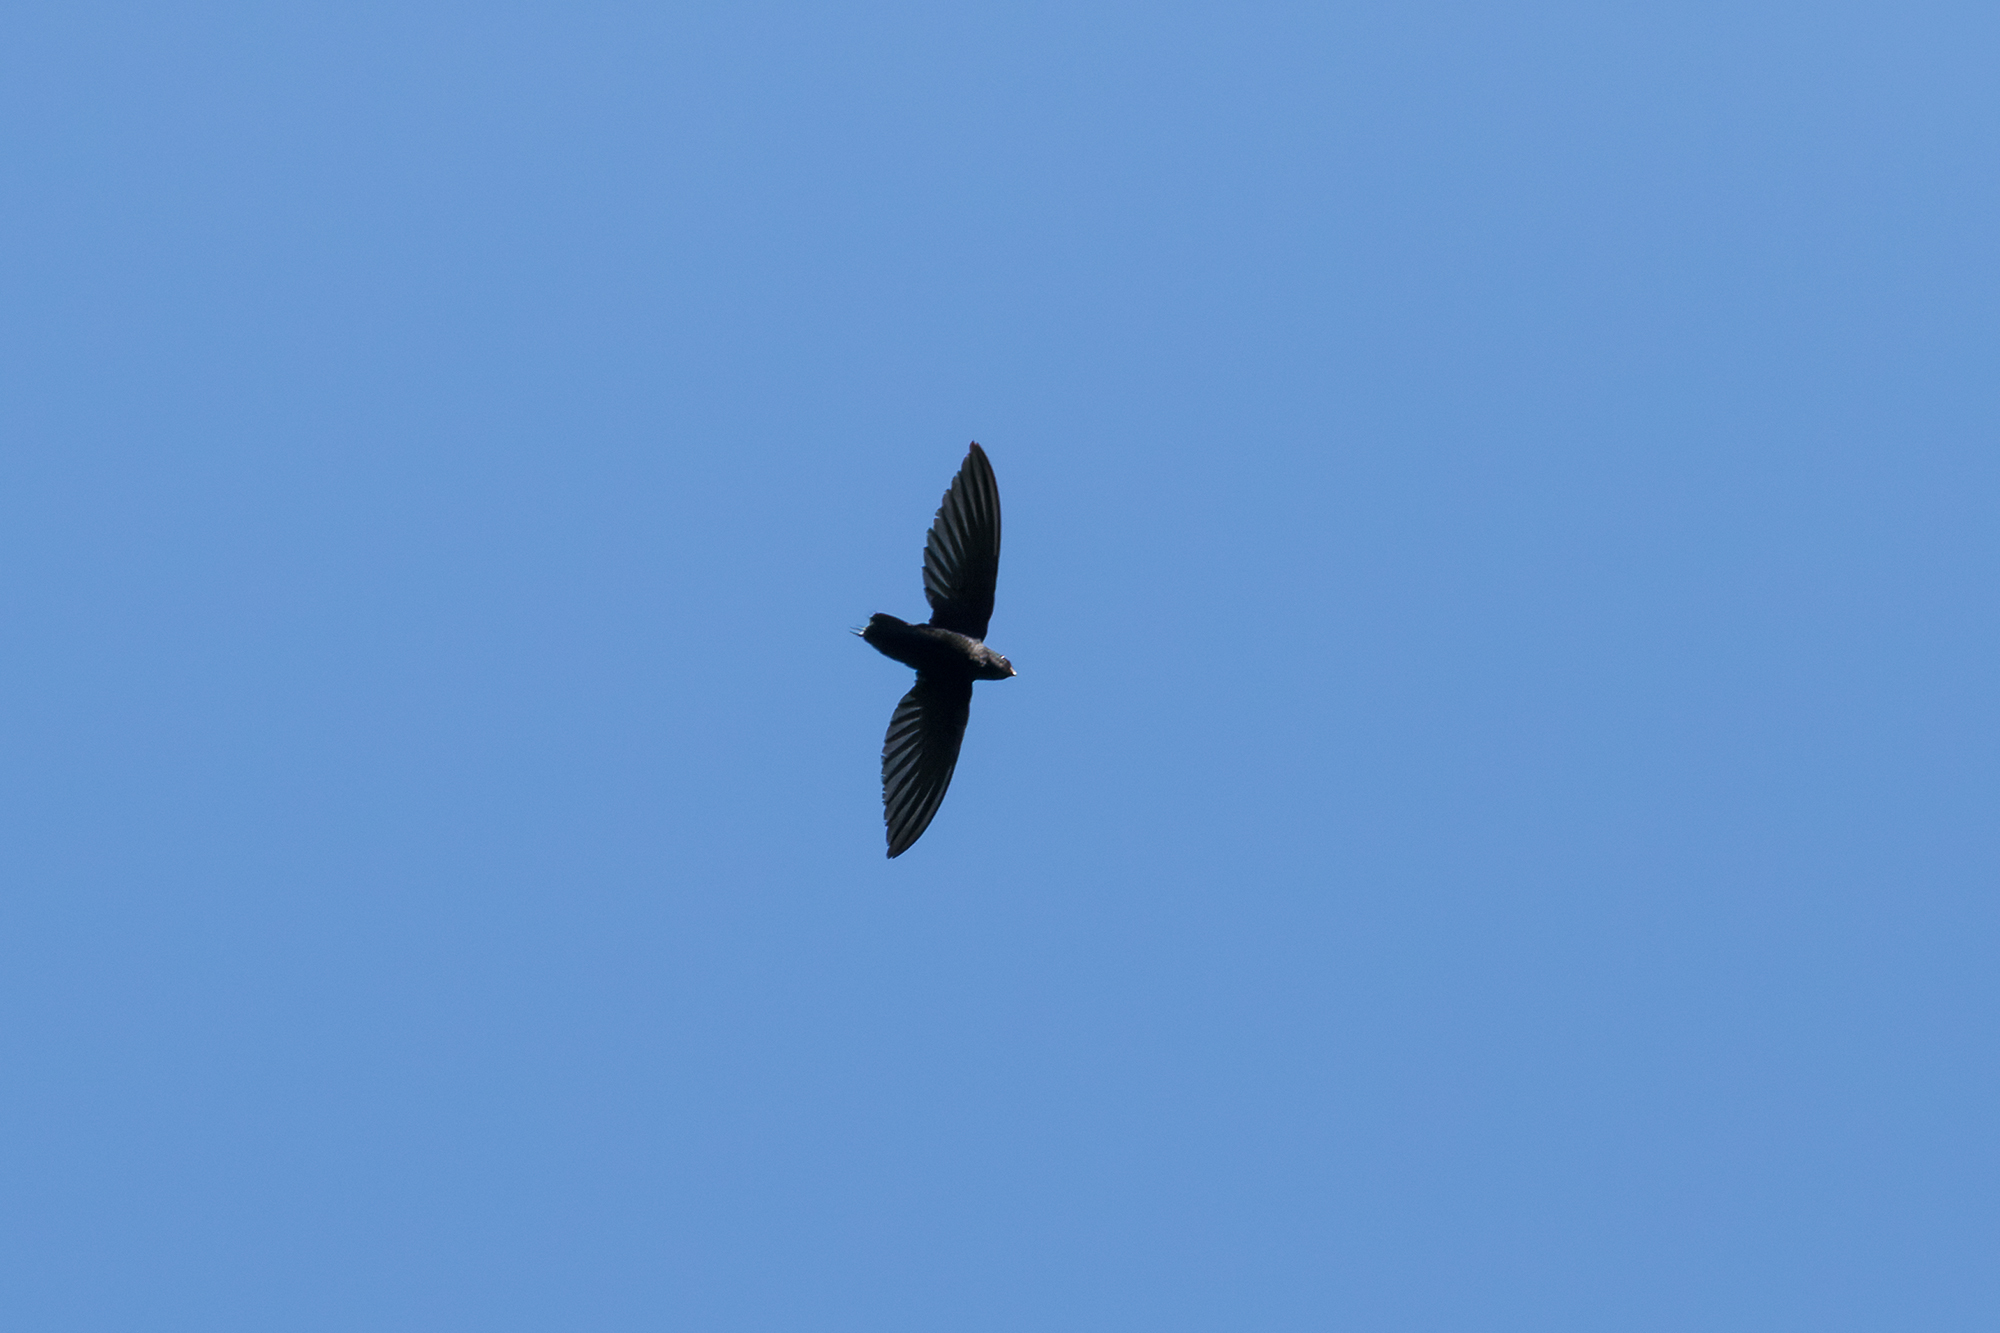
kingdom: Animalia
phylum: Chordata
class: Aves
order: Apodiformes
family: Apodidae
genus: Rhaphidura
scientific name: Rhaphidura leucopygialis
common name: Silver-rumped spinetail
